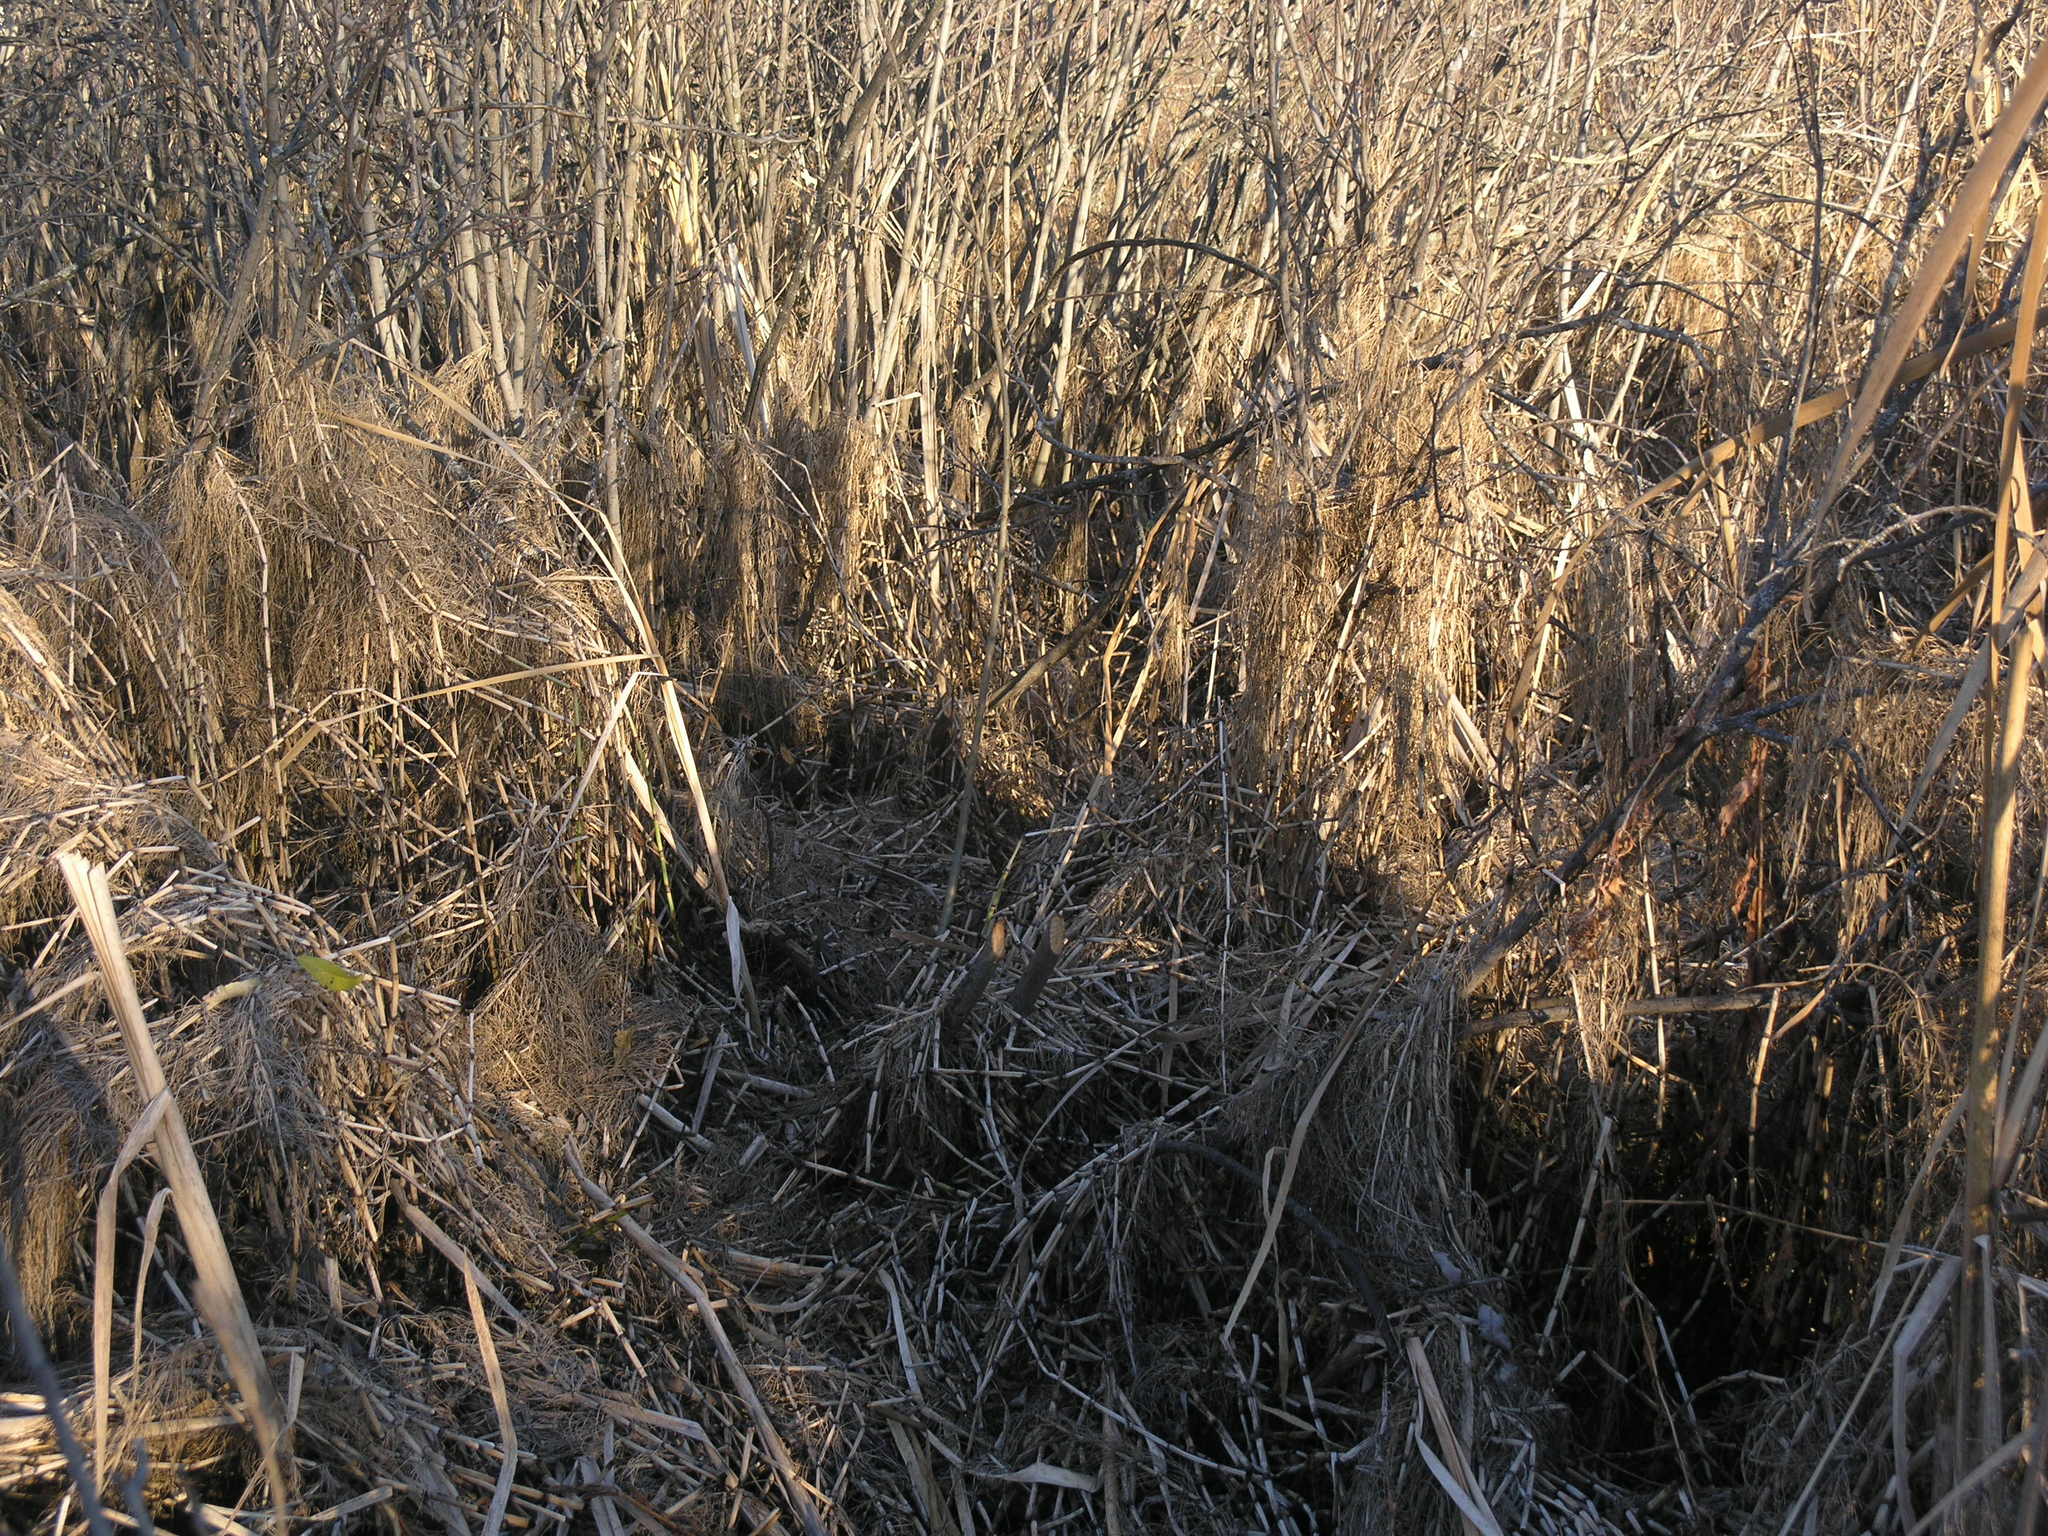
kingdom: Animalia
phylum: Chordata
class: Mammalia
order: Rodentia
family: Castoridae
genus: Castor
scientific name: Castor fiber
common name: Eurasian beaver
